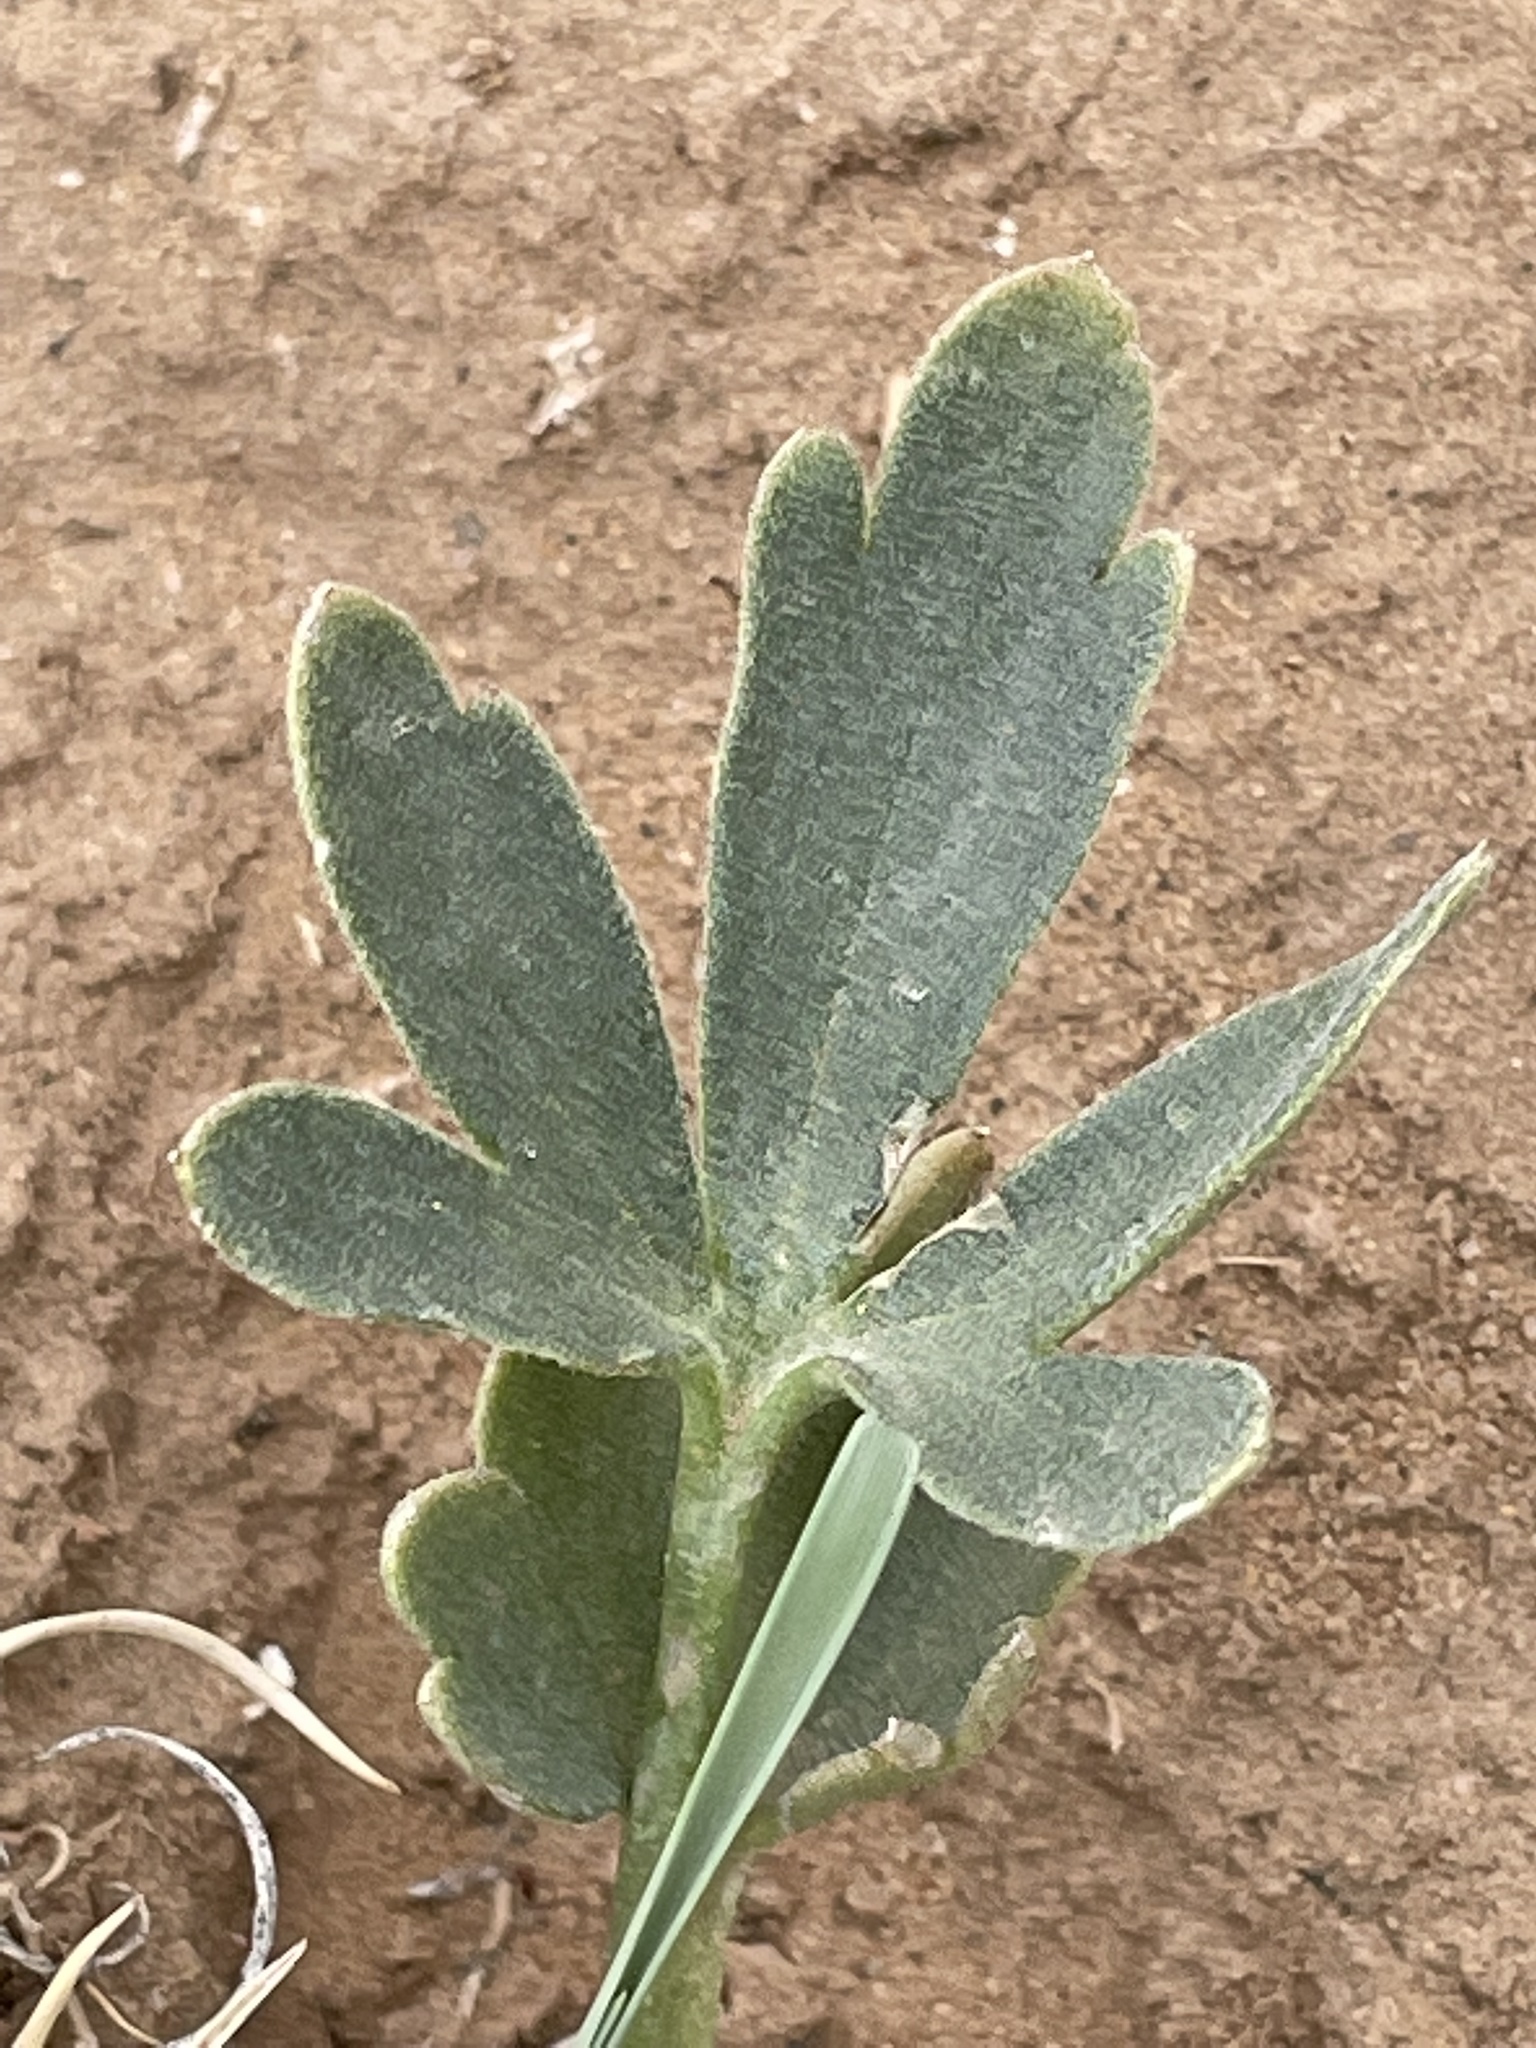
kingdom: Plantae
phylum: Tracheophyta
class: Magnoliopsida
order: Ranunculales
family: Ranunculaceae
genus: Delphinium
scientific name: Delphinium scaposum
